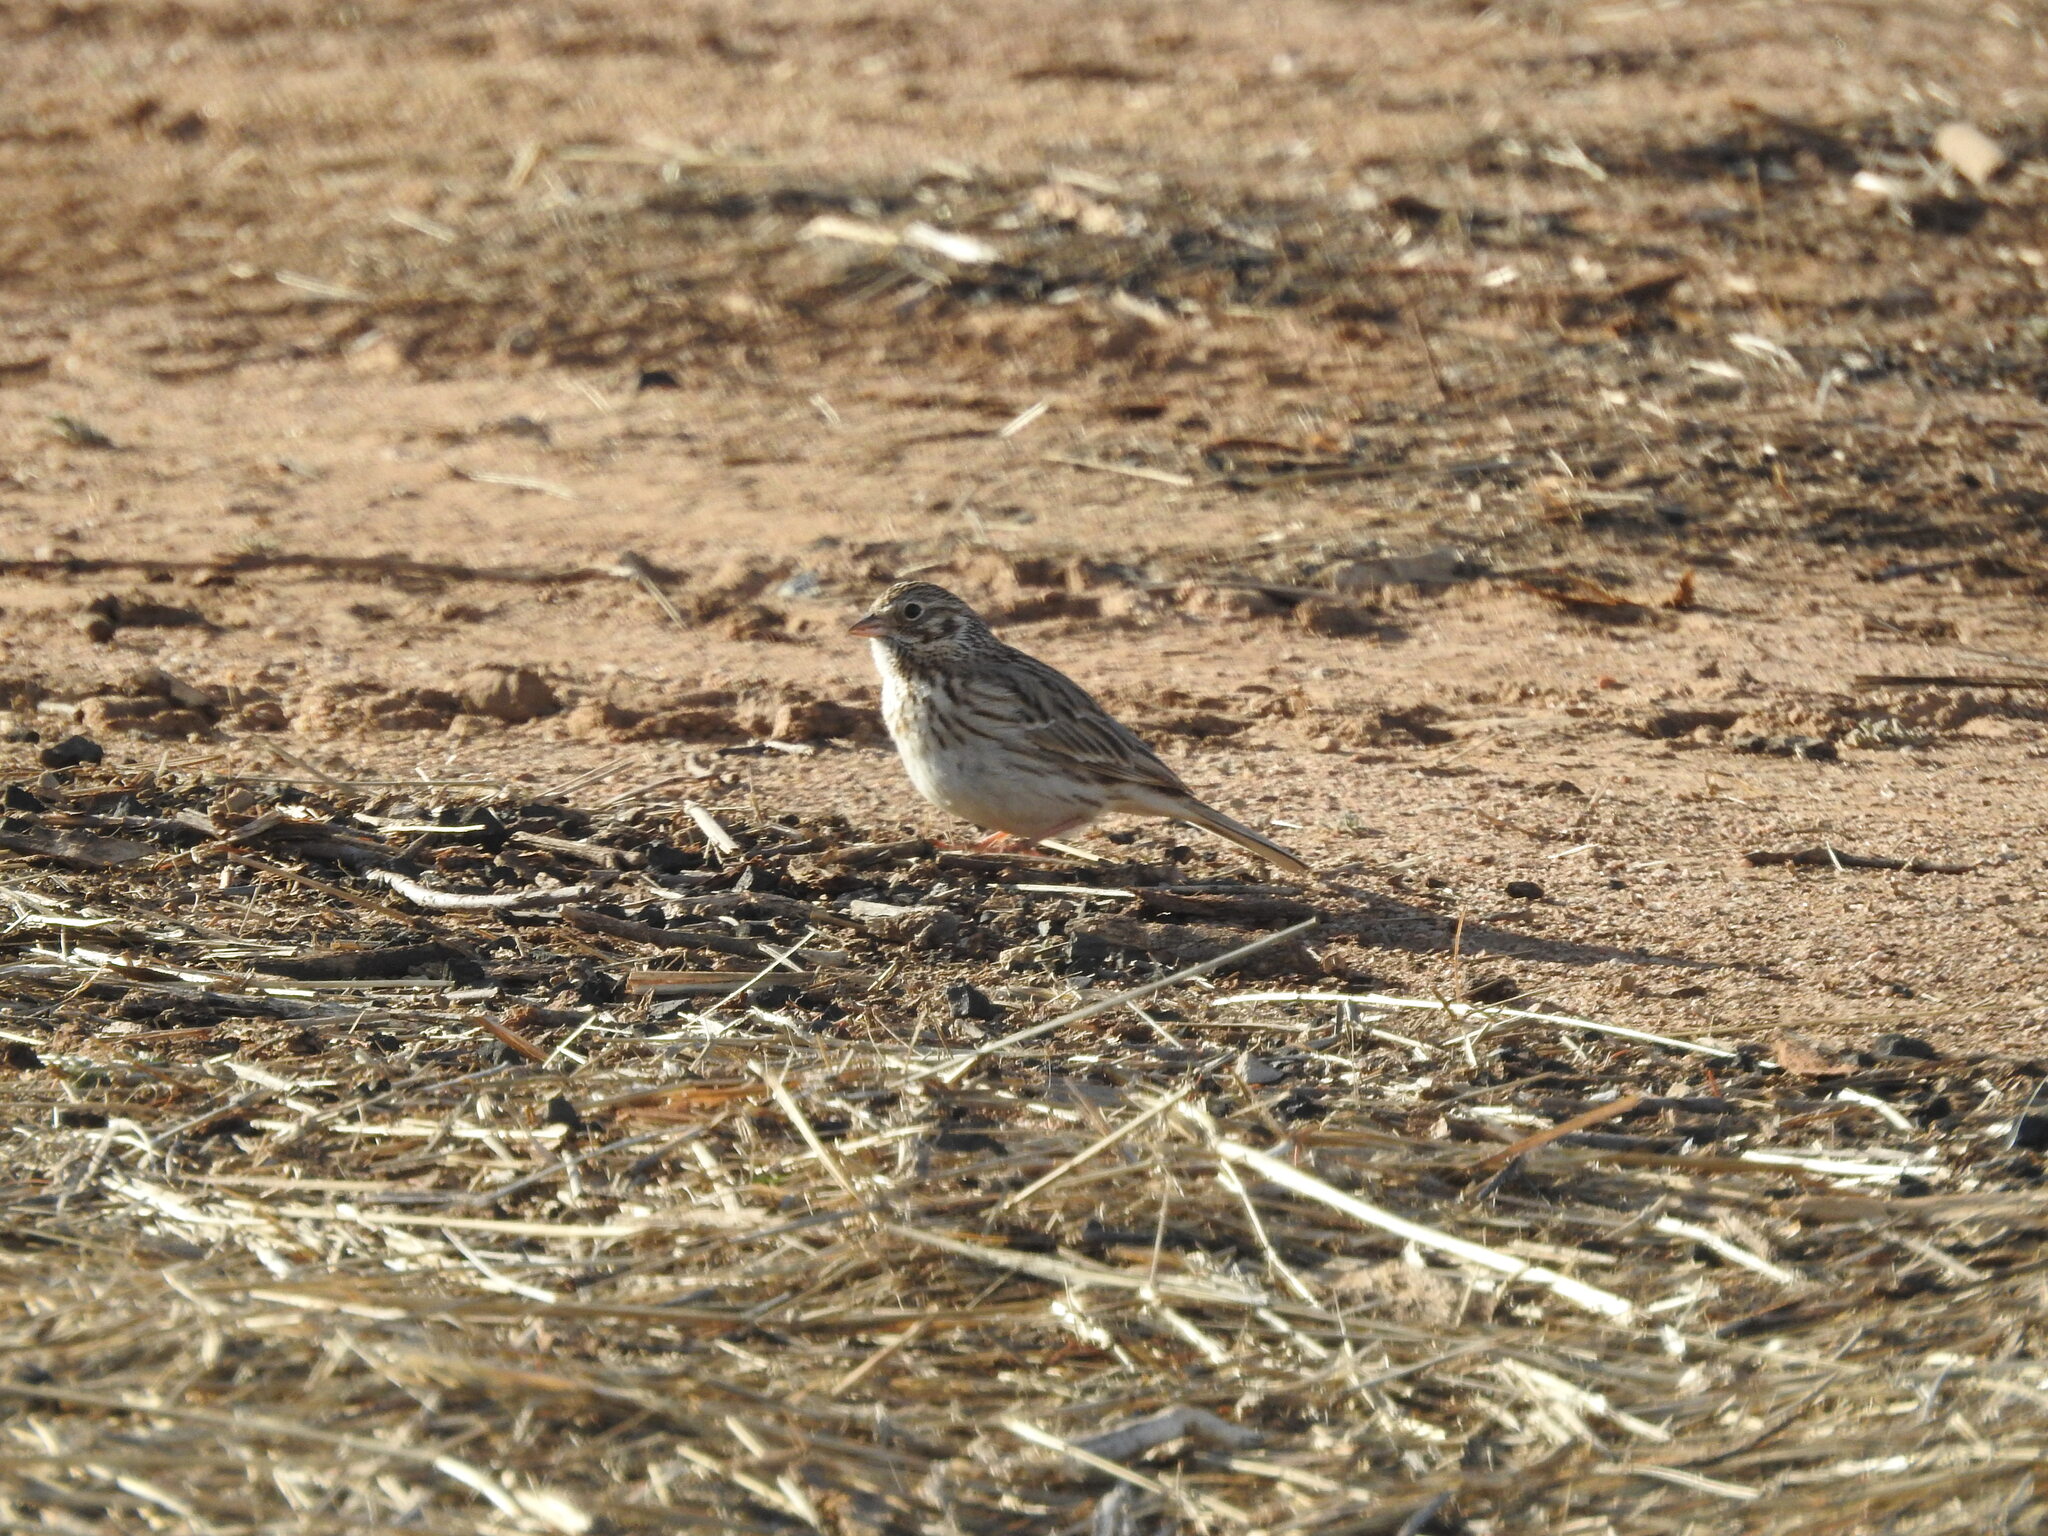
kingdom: Animalia
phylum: Chordata
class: Aves
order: Passeriformes
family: Passerellidae
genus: Pooecetes
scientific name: Pooecetes gramineus
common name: Vesper sparrow
